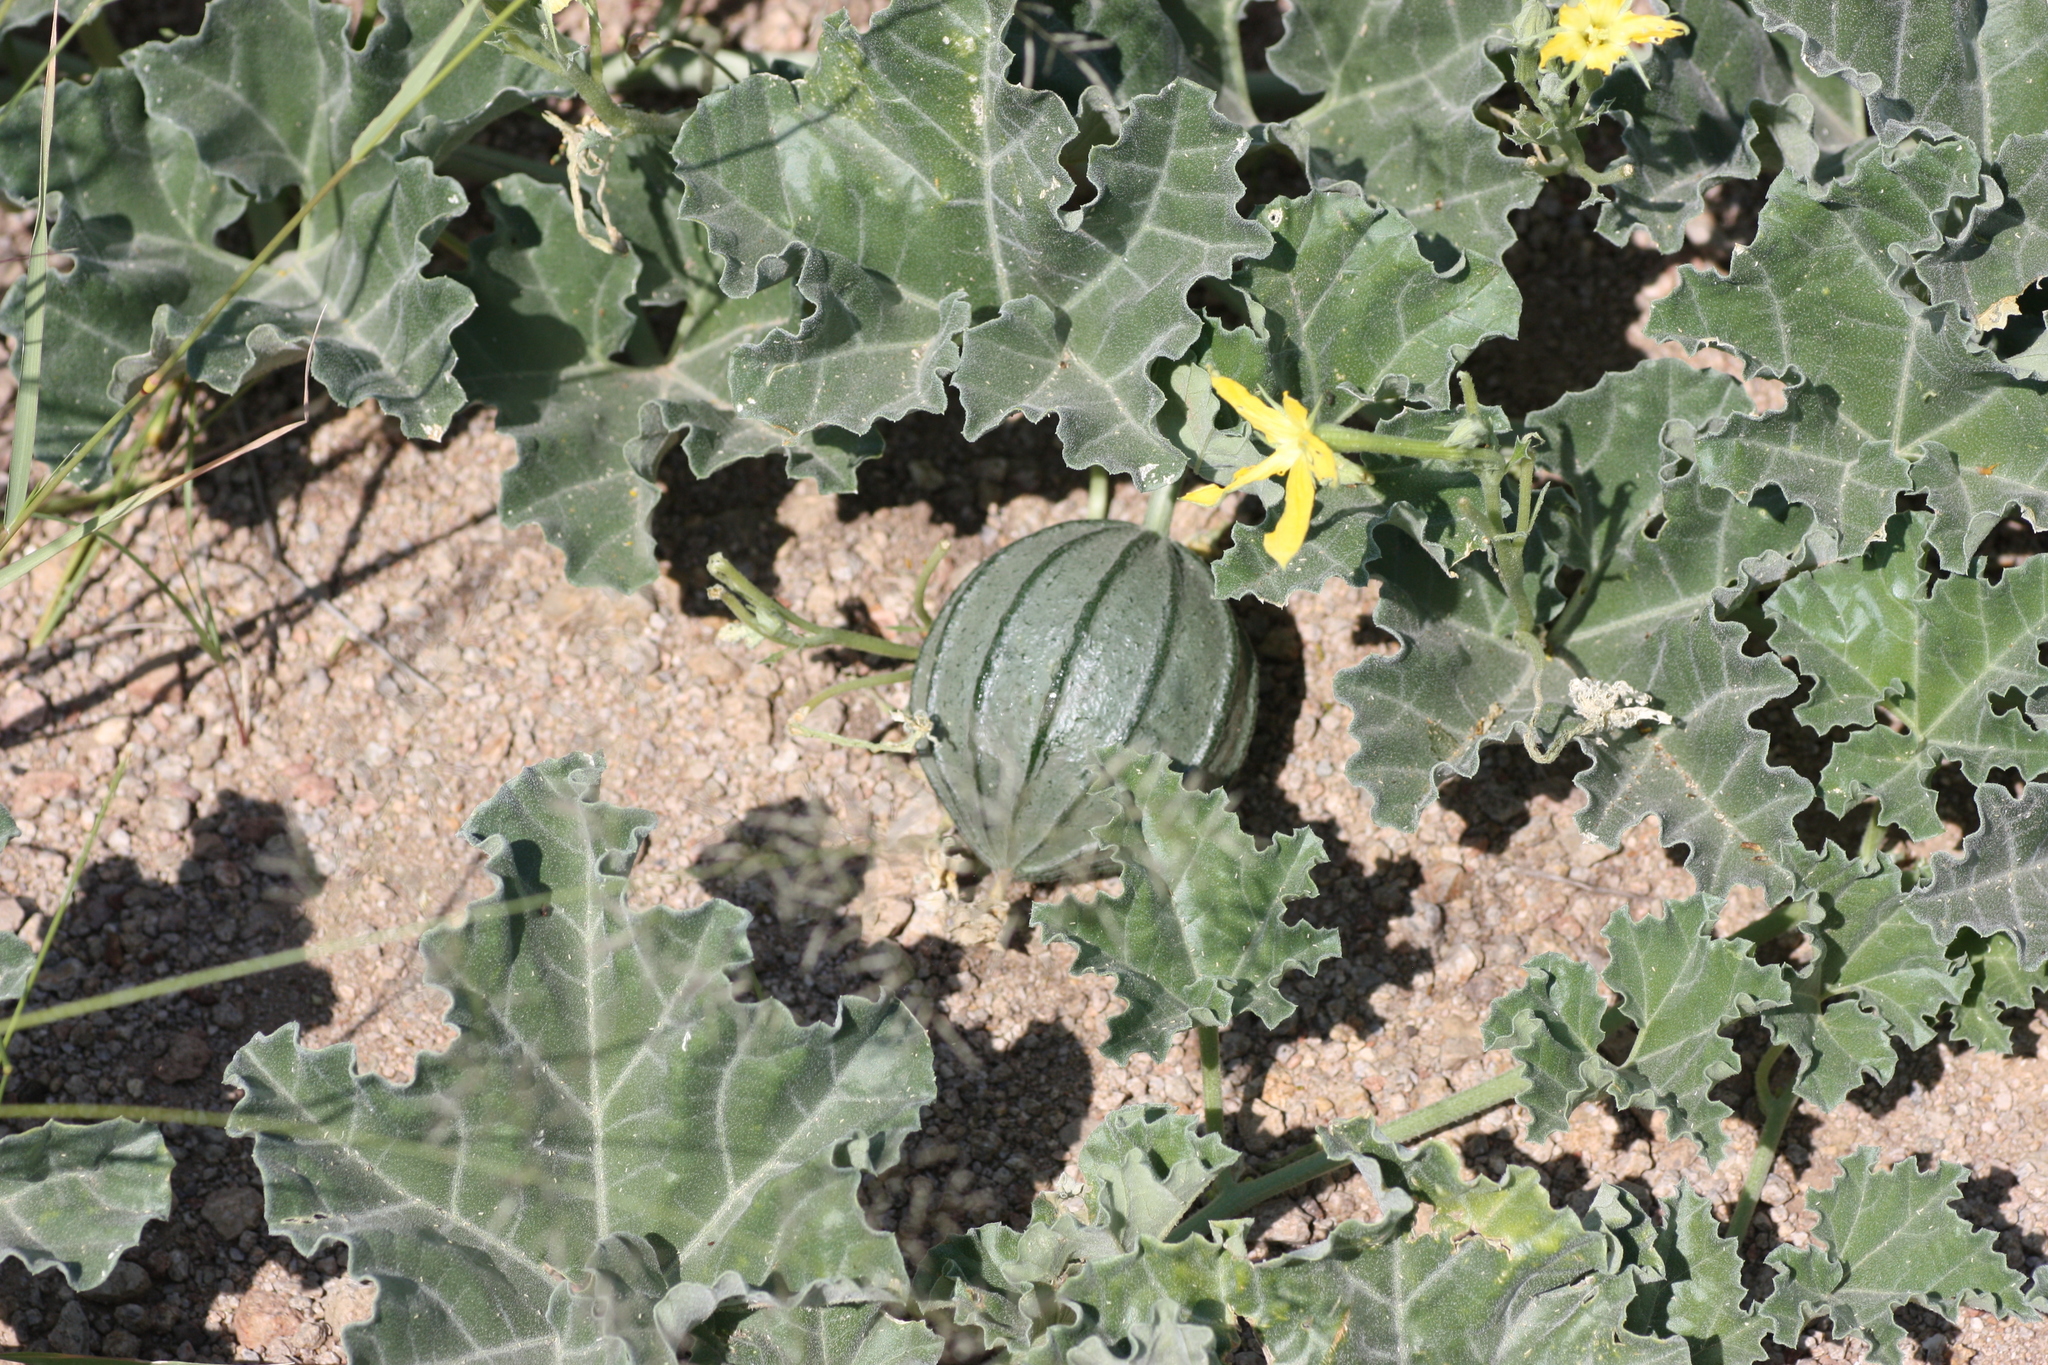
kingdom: Plantae
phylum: Tracheophyta
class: Magnoliopsida
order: Cucurbitales
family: Cucurbitaceae
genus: Apodanthera
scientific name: Apodanthera undulata
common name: Melon-loco
